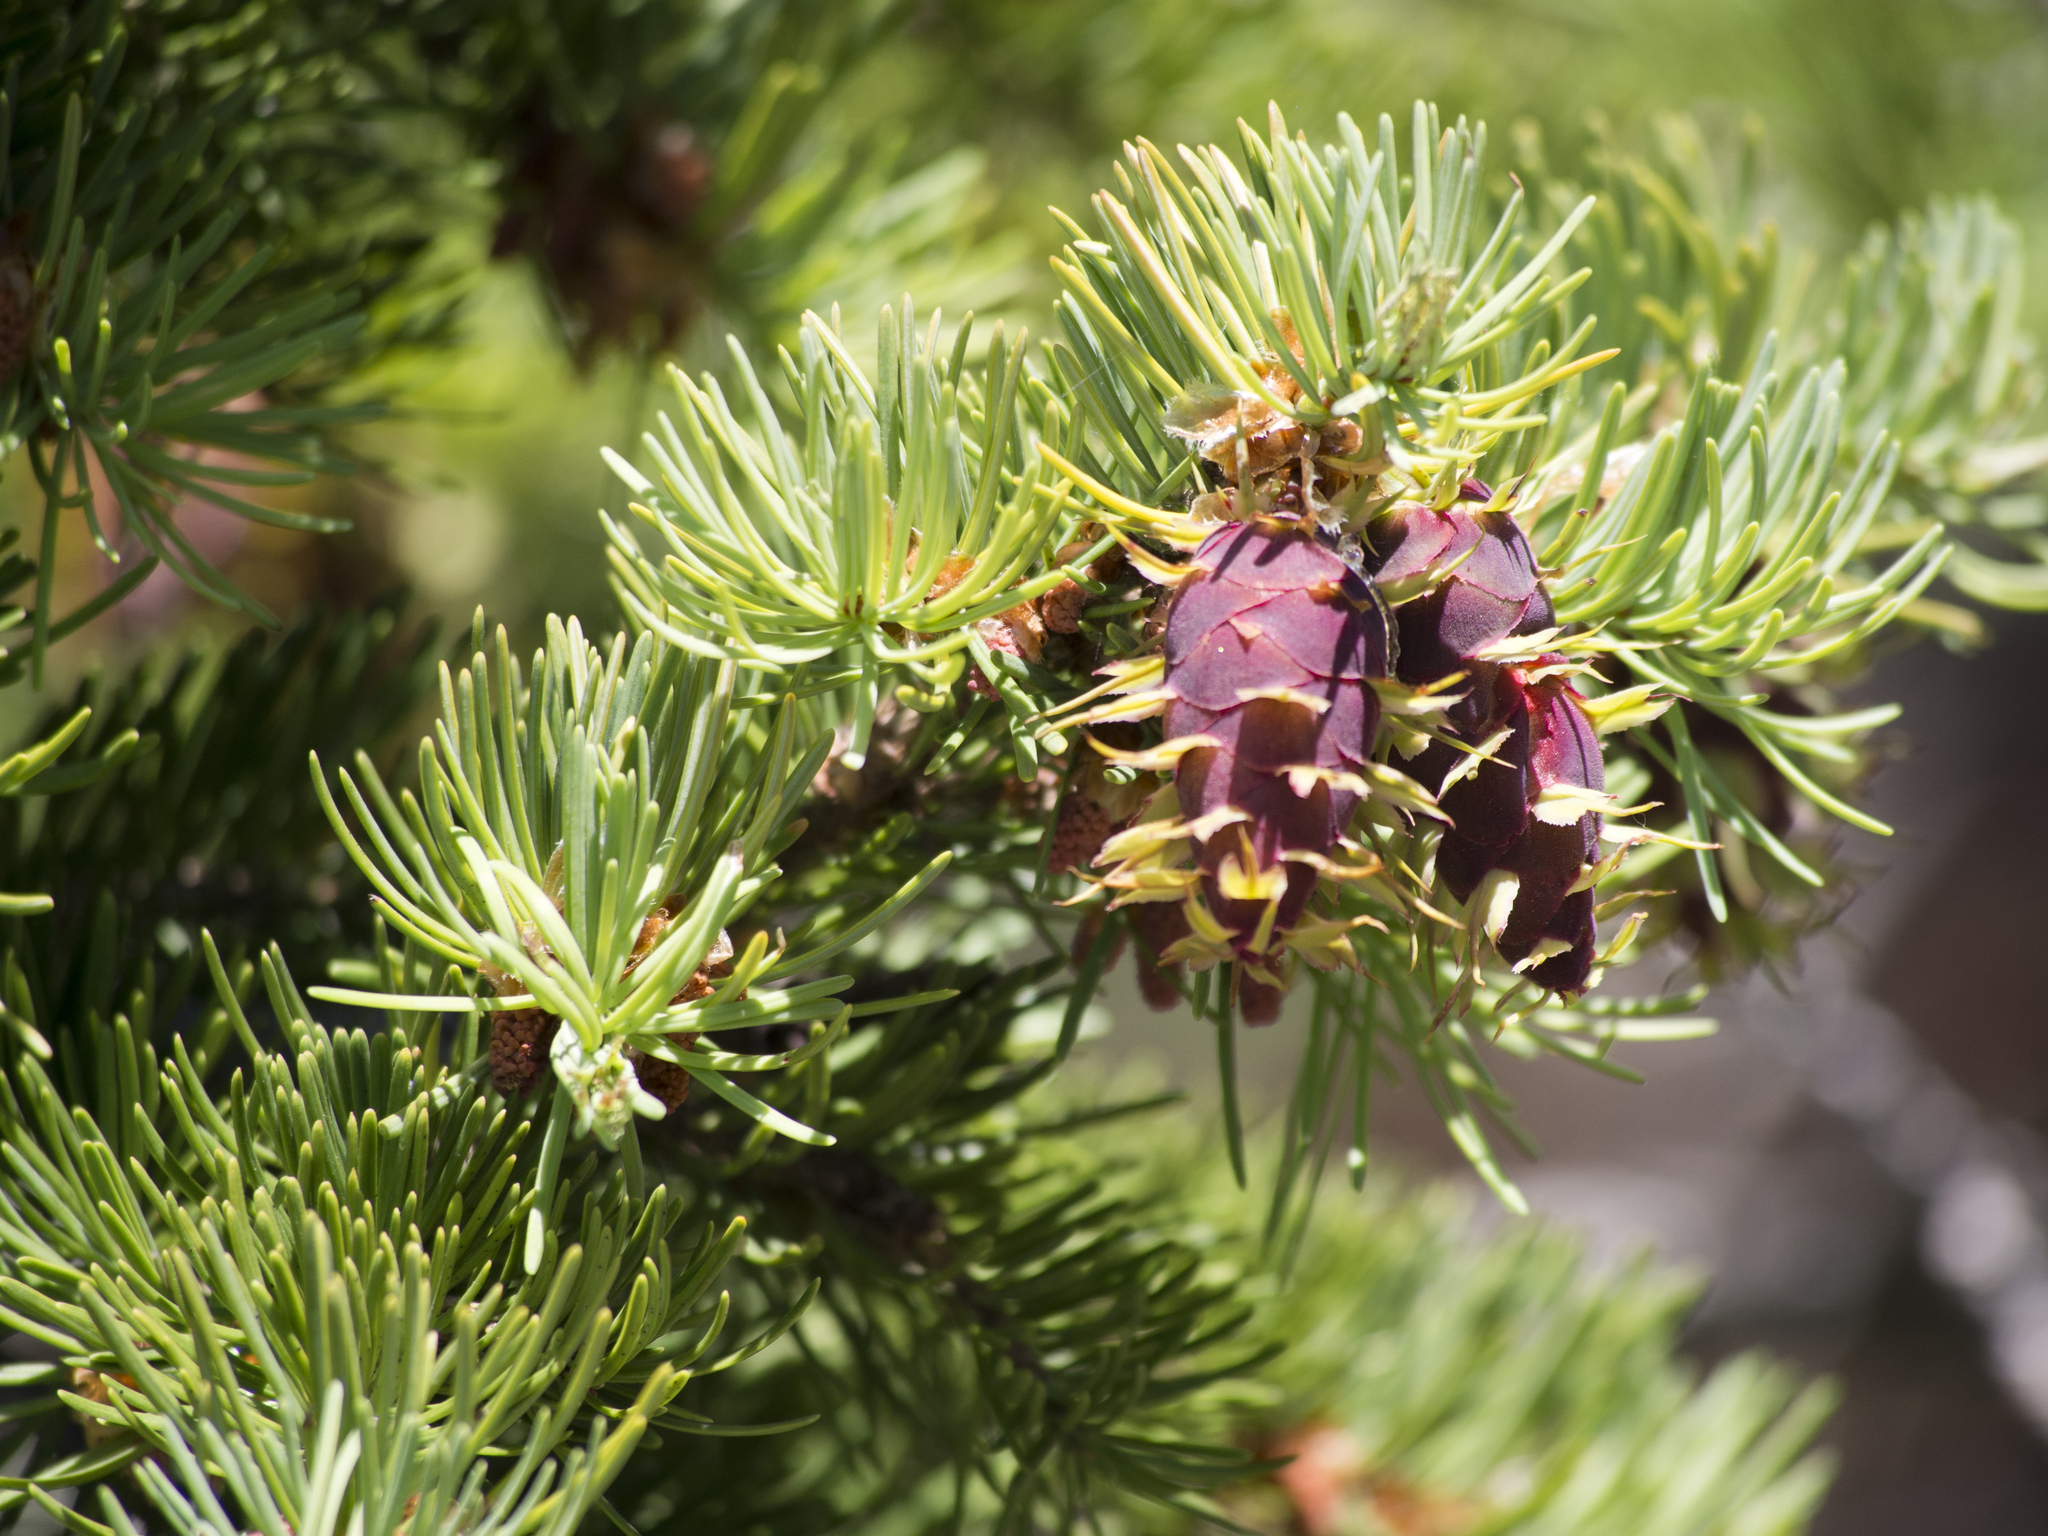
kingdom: Plantae
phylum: Tracheophyta
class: Pinopsida
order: Pinales
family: Pinaceae
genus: Pseudotsuga
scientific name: Pseudotsuga menziesii
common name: Douglas fir
